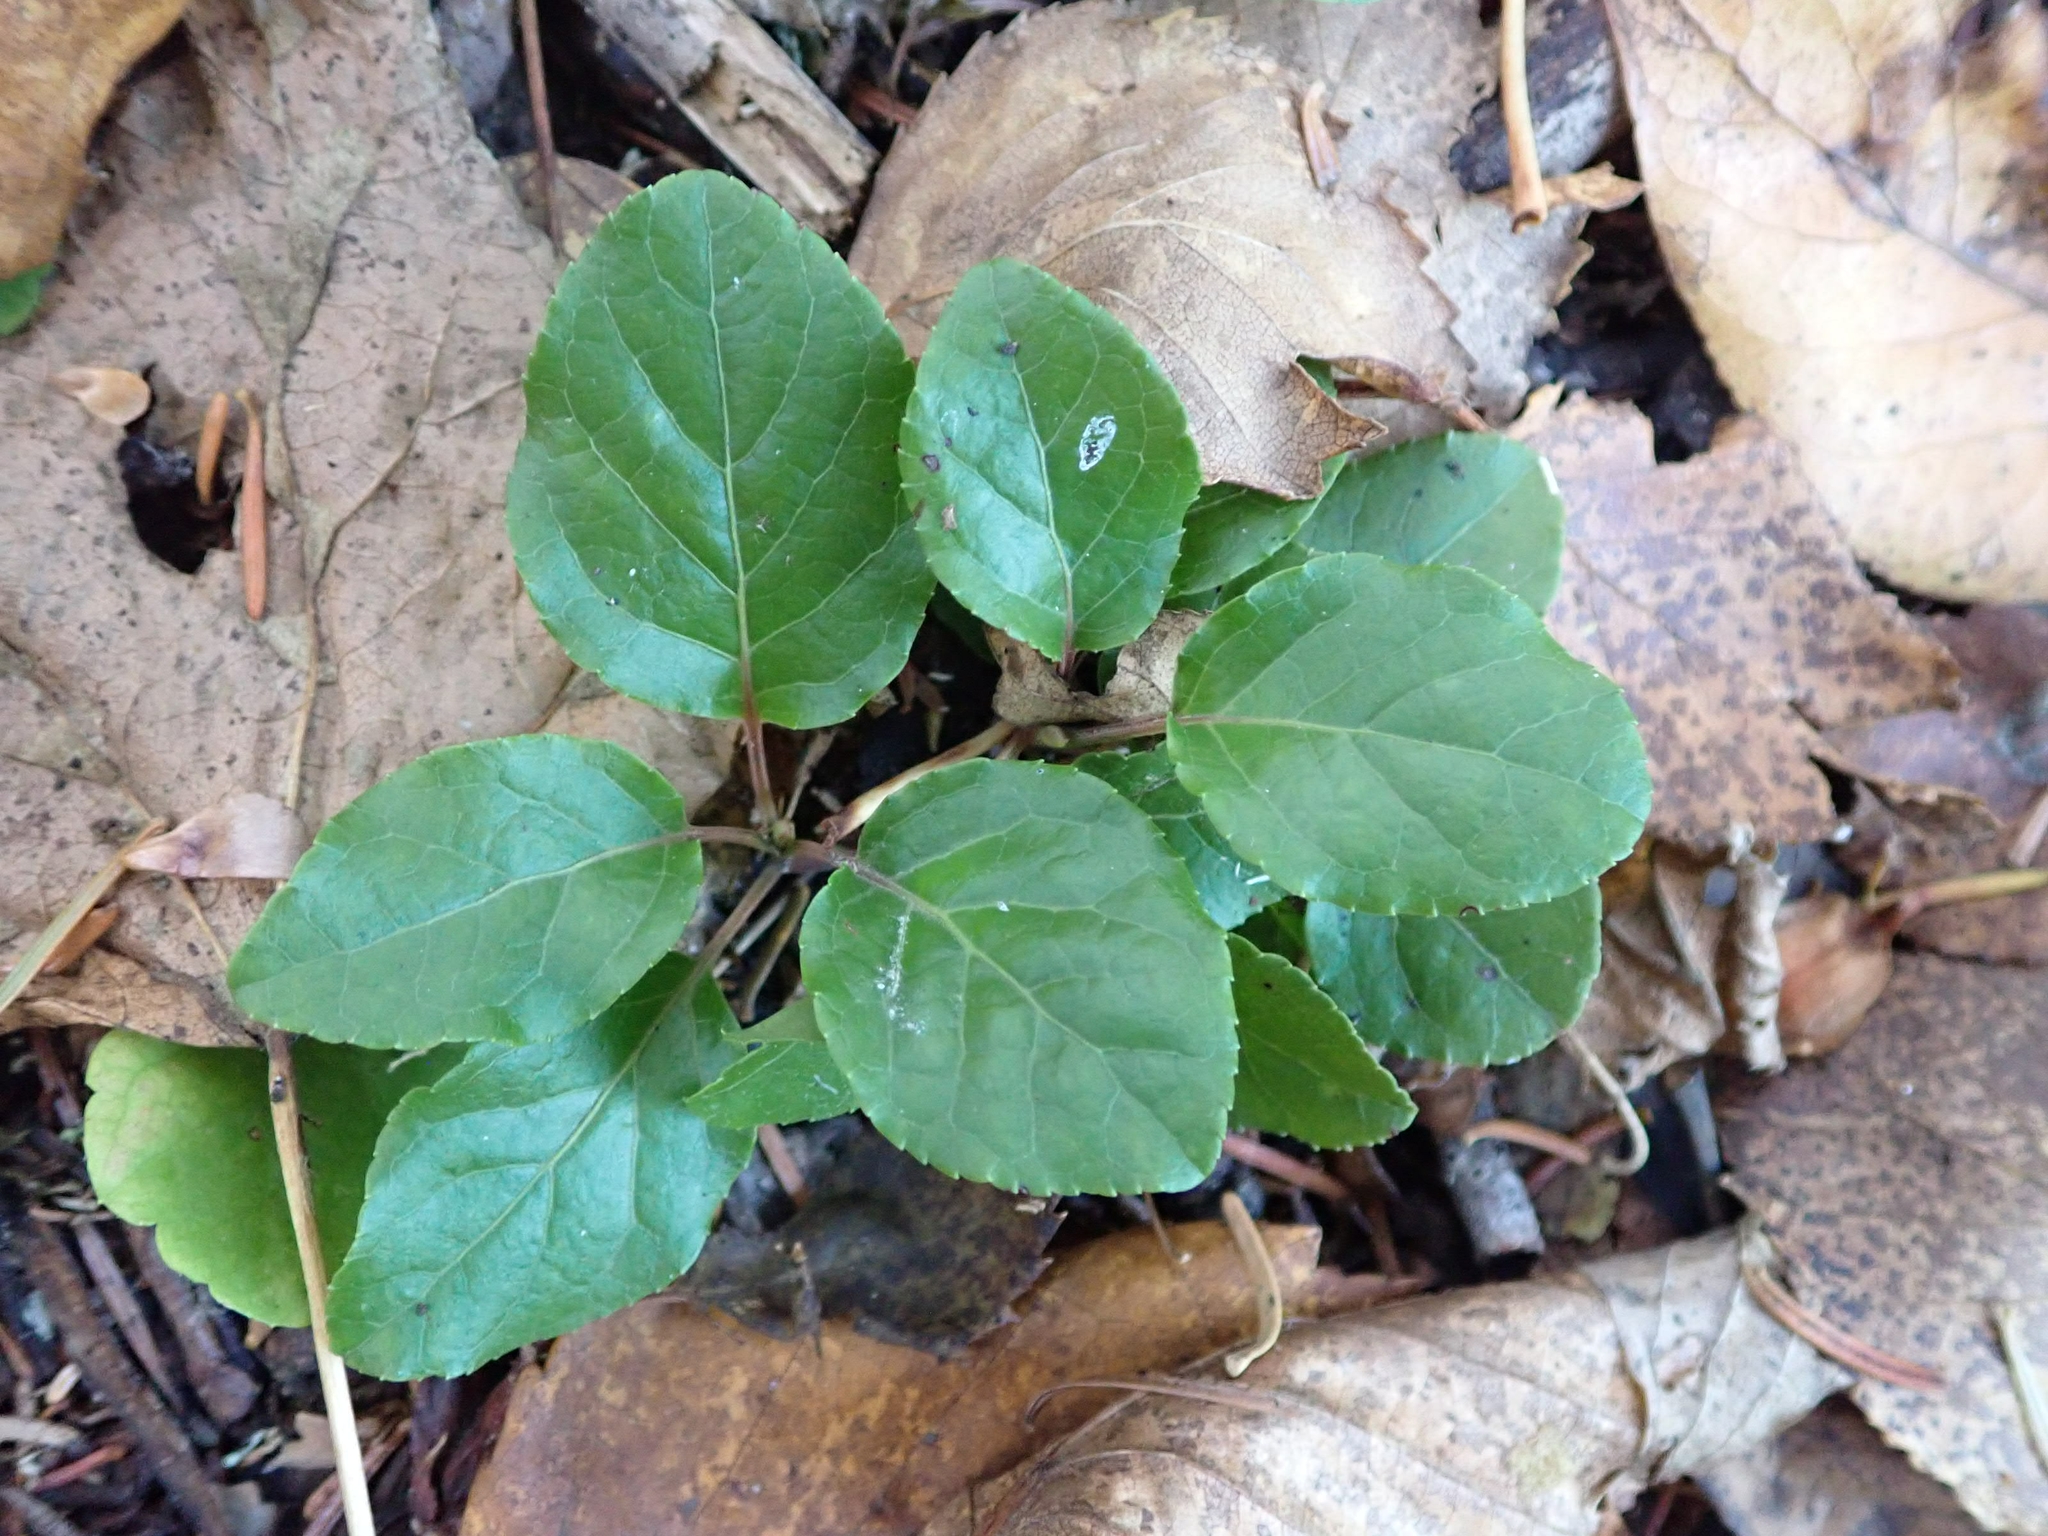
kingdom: Plantae
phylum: Tracheophyta
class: Magnoliopsida
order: Ericales
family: Ericaceae
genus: Orthilia
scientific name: Orthilia secunda
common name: One-sided orthilia
